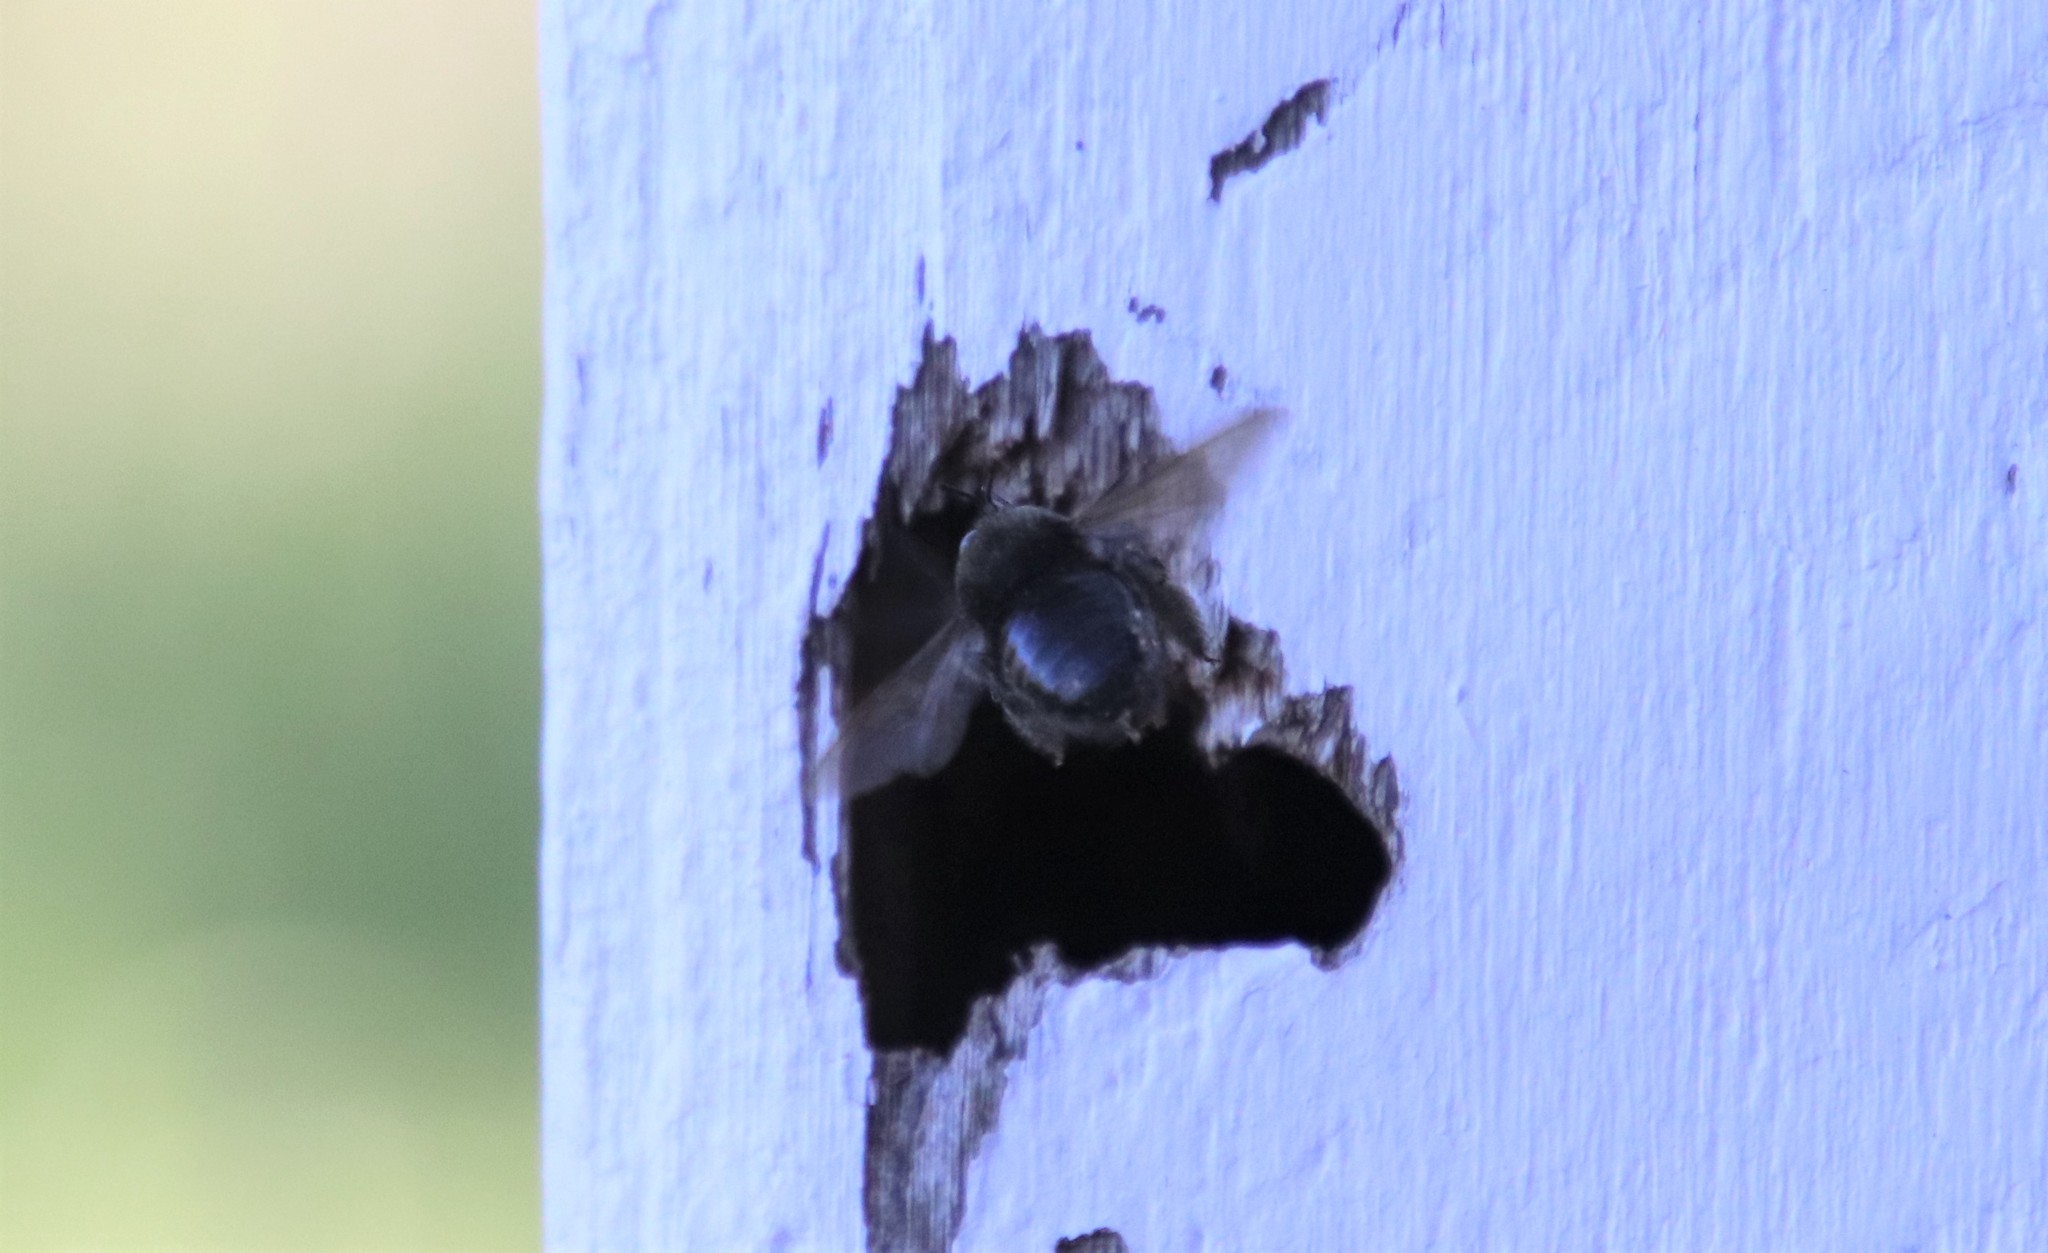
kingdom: Animalia
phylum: Arthropoda
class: Insecta
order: Hymenoptera
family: Apidae
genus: Xylocopa
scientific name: Xylocopa tabaniformis
